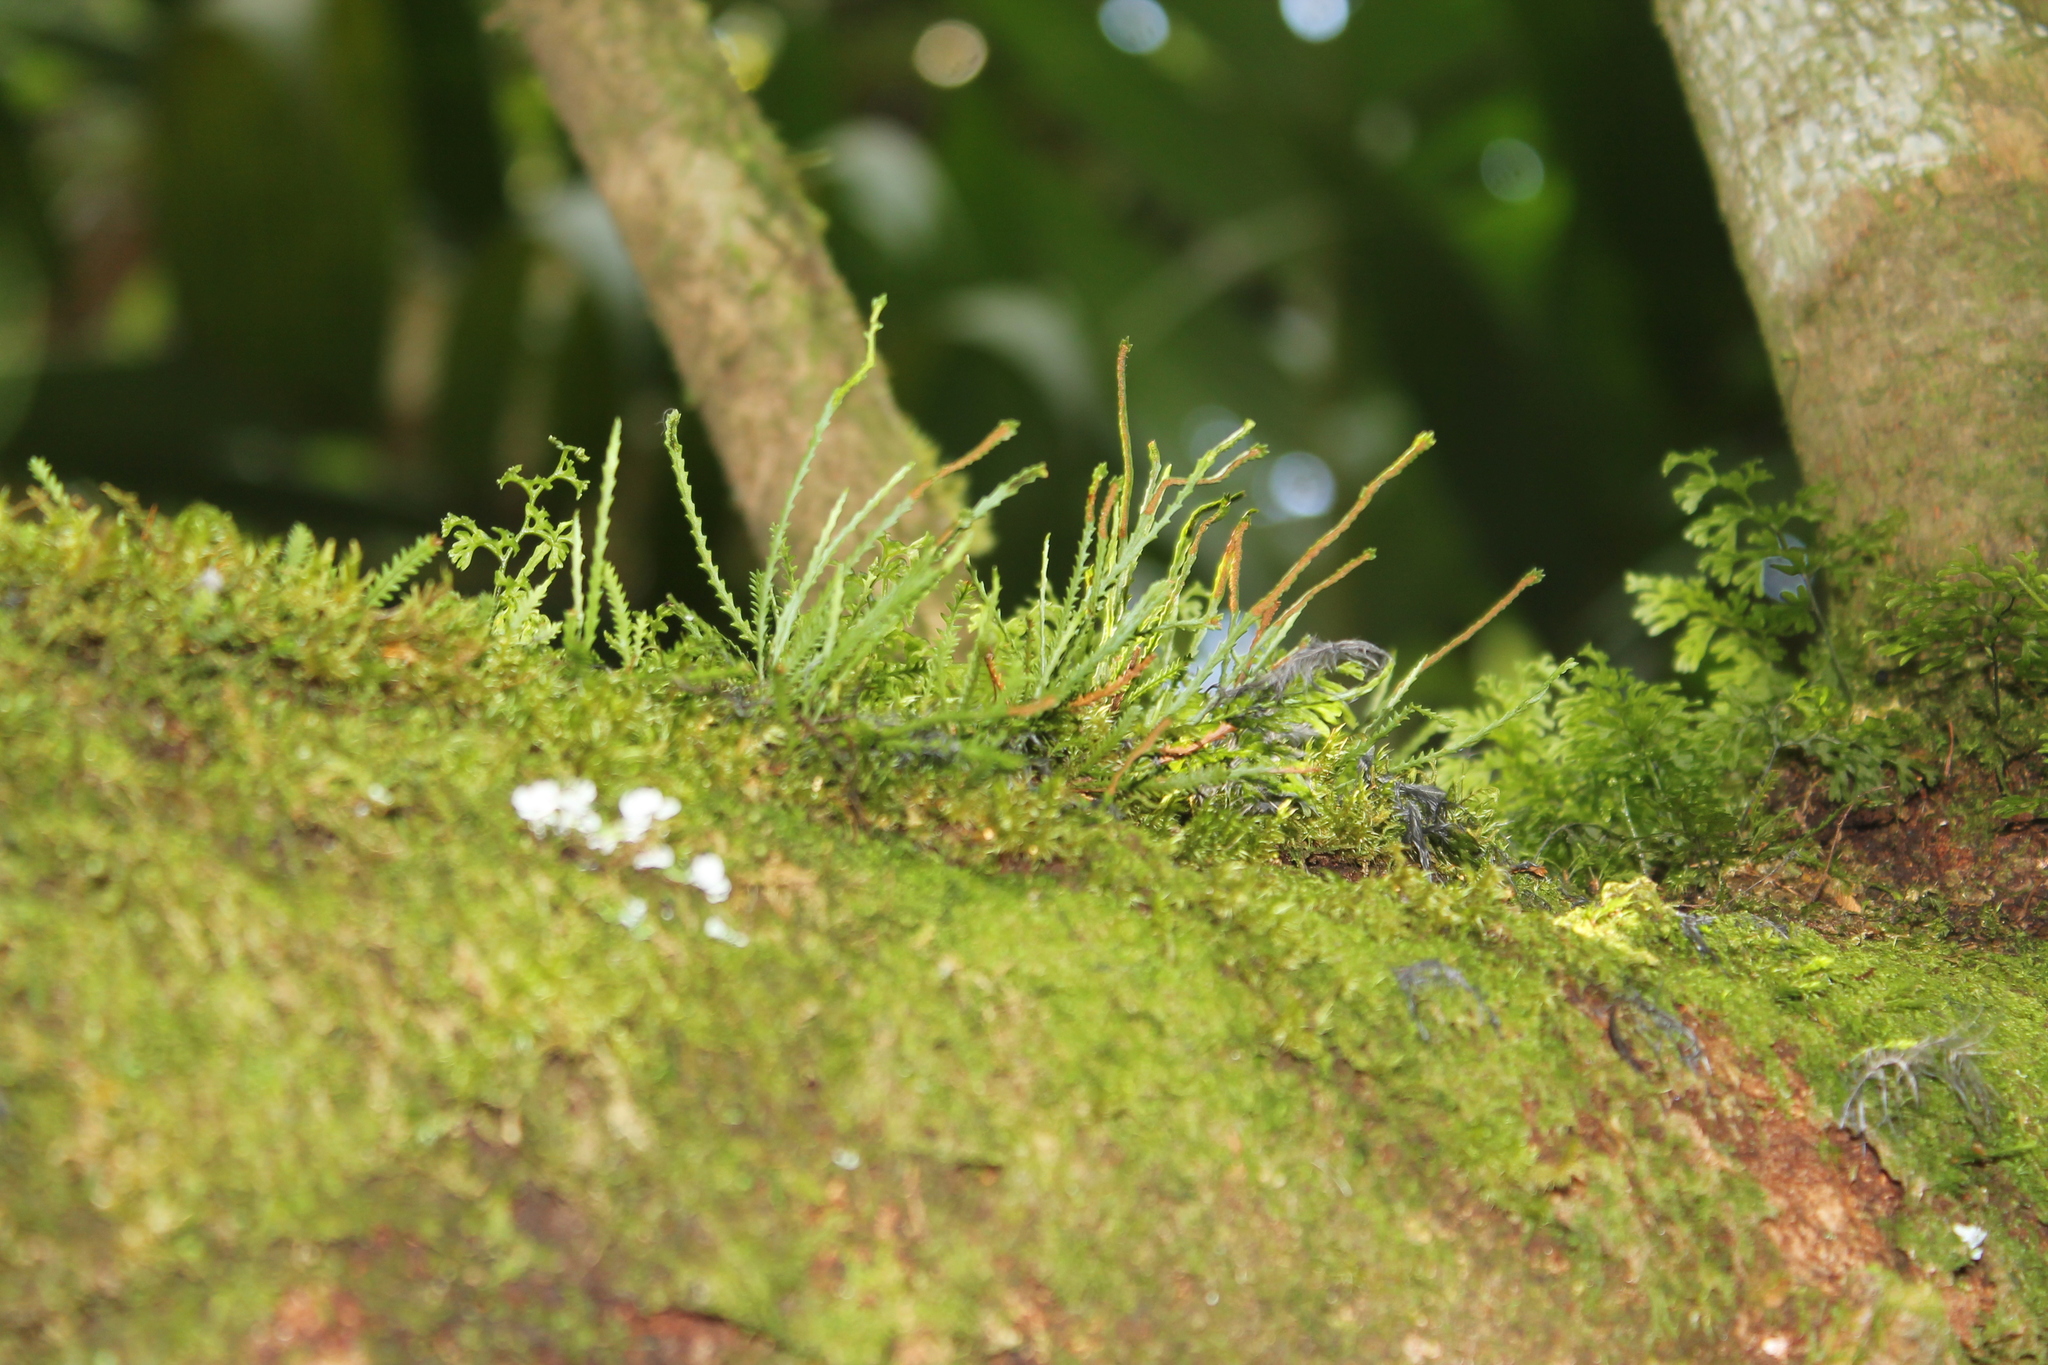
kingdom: Plantae
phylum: Tracheophyta
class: Polypodiopsida
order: Polypodiales
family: Polypodiaceae
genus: Cochlidium
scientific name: Cochlidium serrulatum
